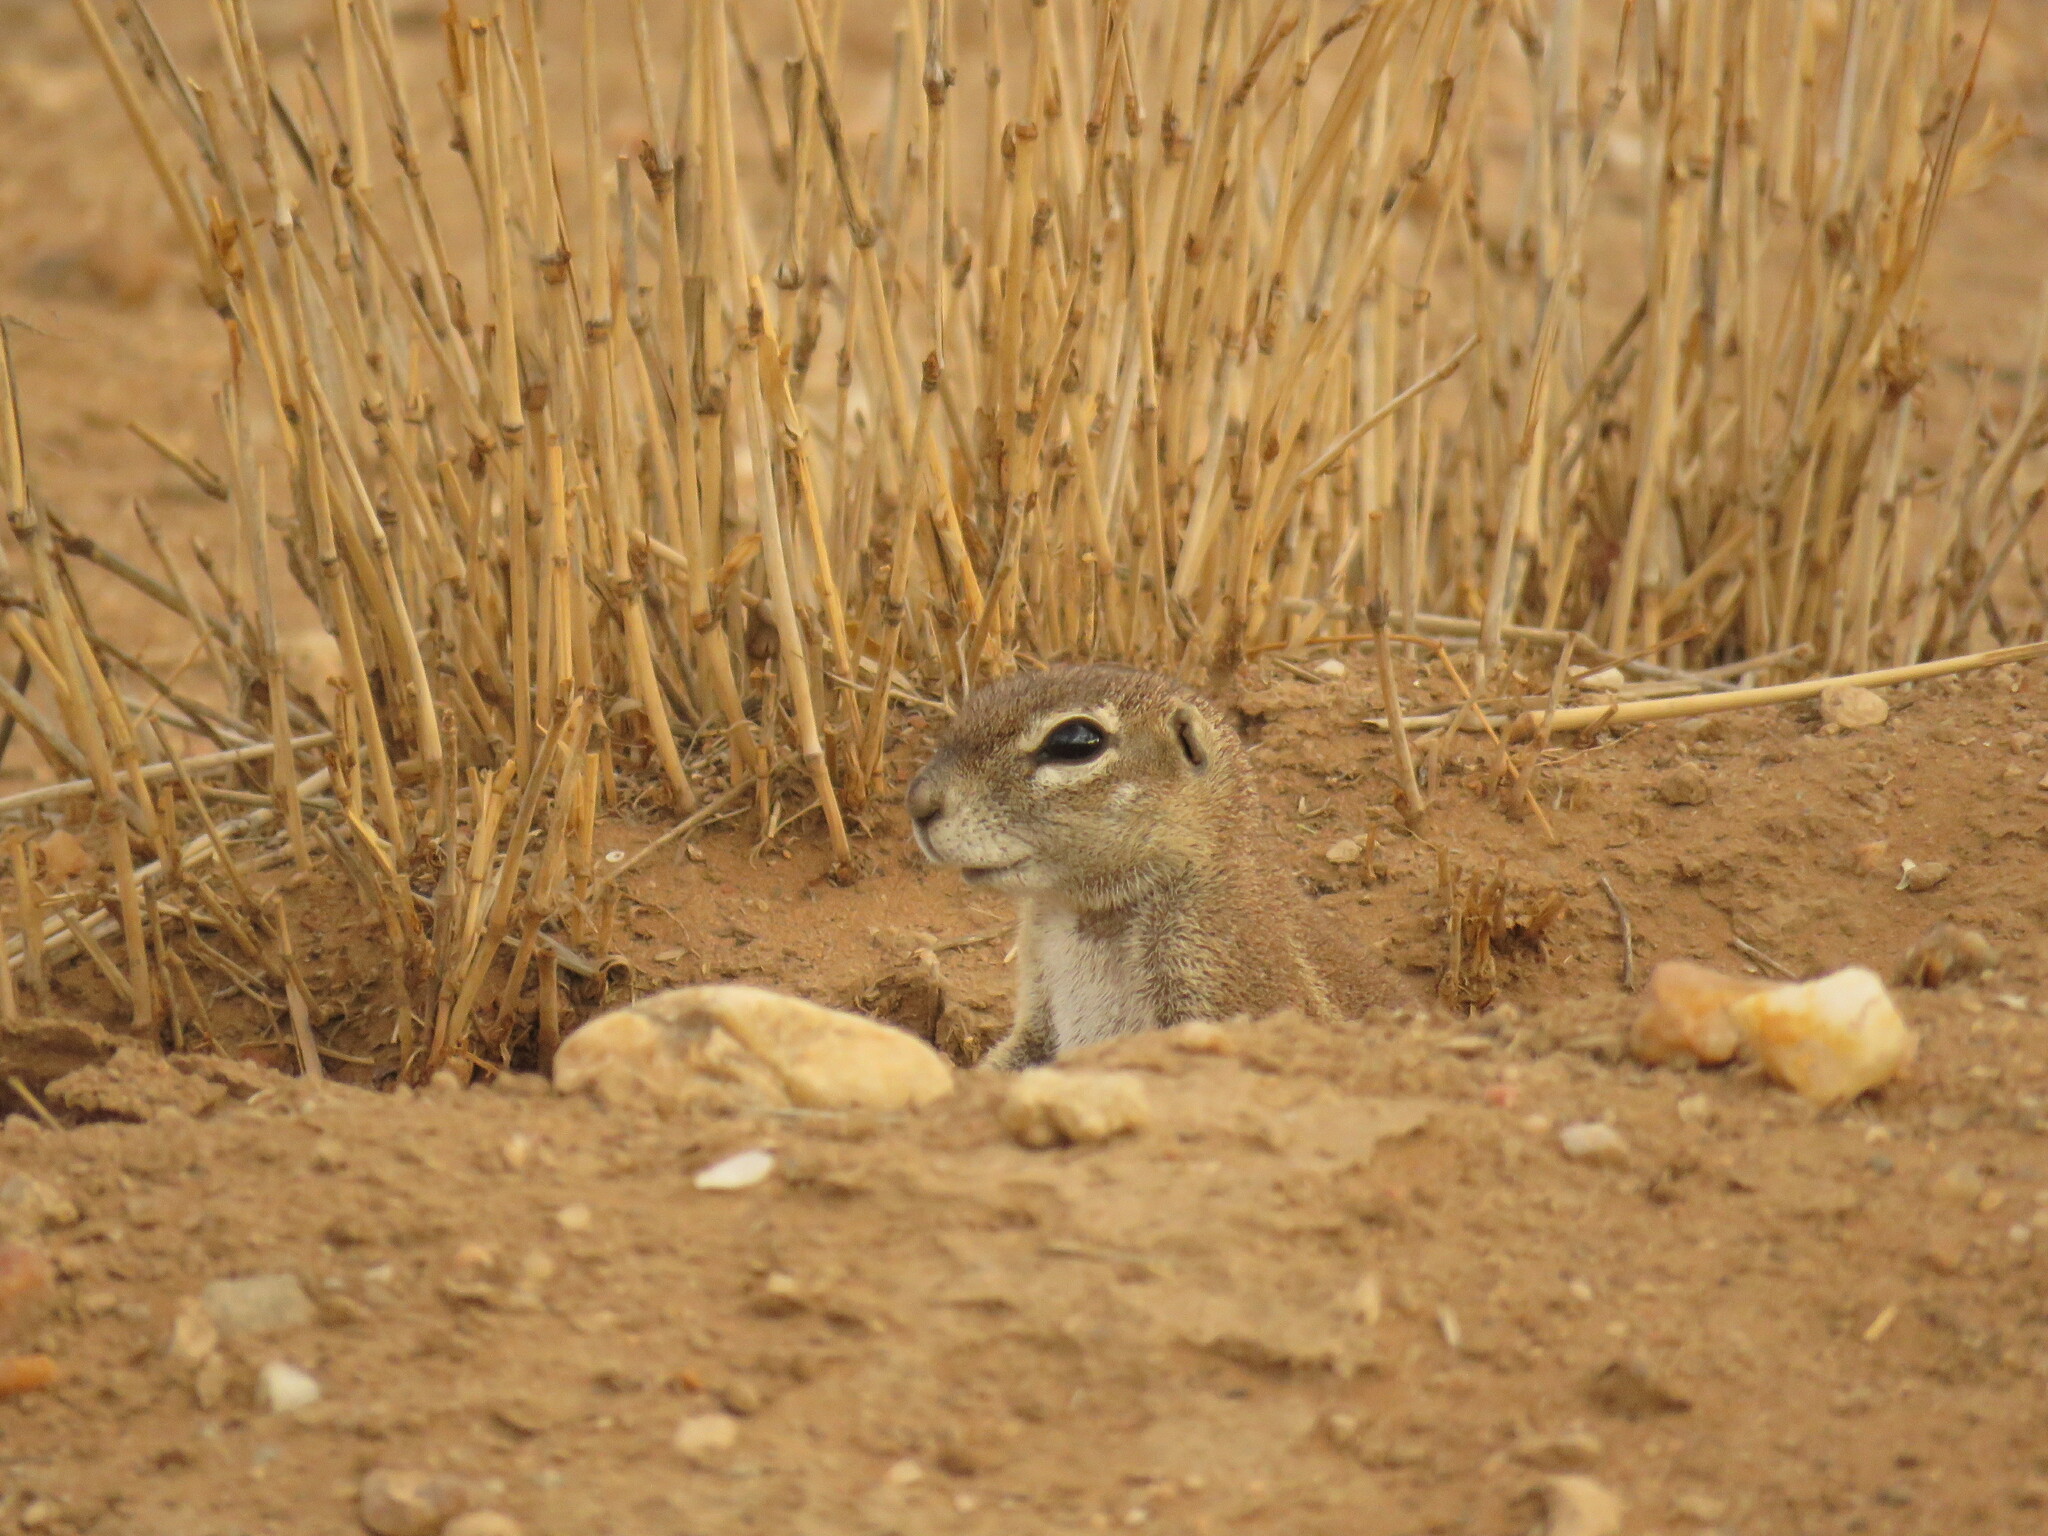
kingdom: Animalia
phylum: Chordata
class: Mammalia
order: Rodentia
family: Sciuridae
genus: Xerus
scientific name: Xerus inauris
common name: South african ground squirrel
